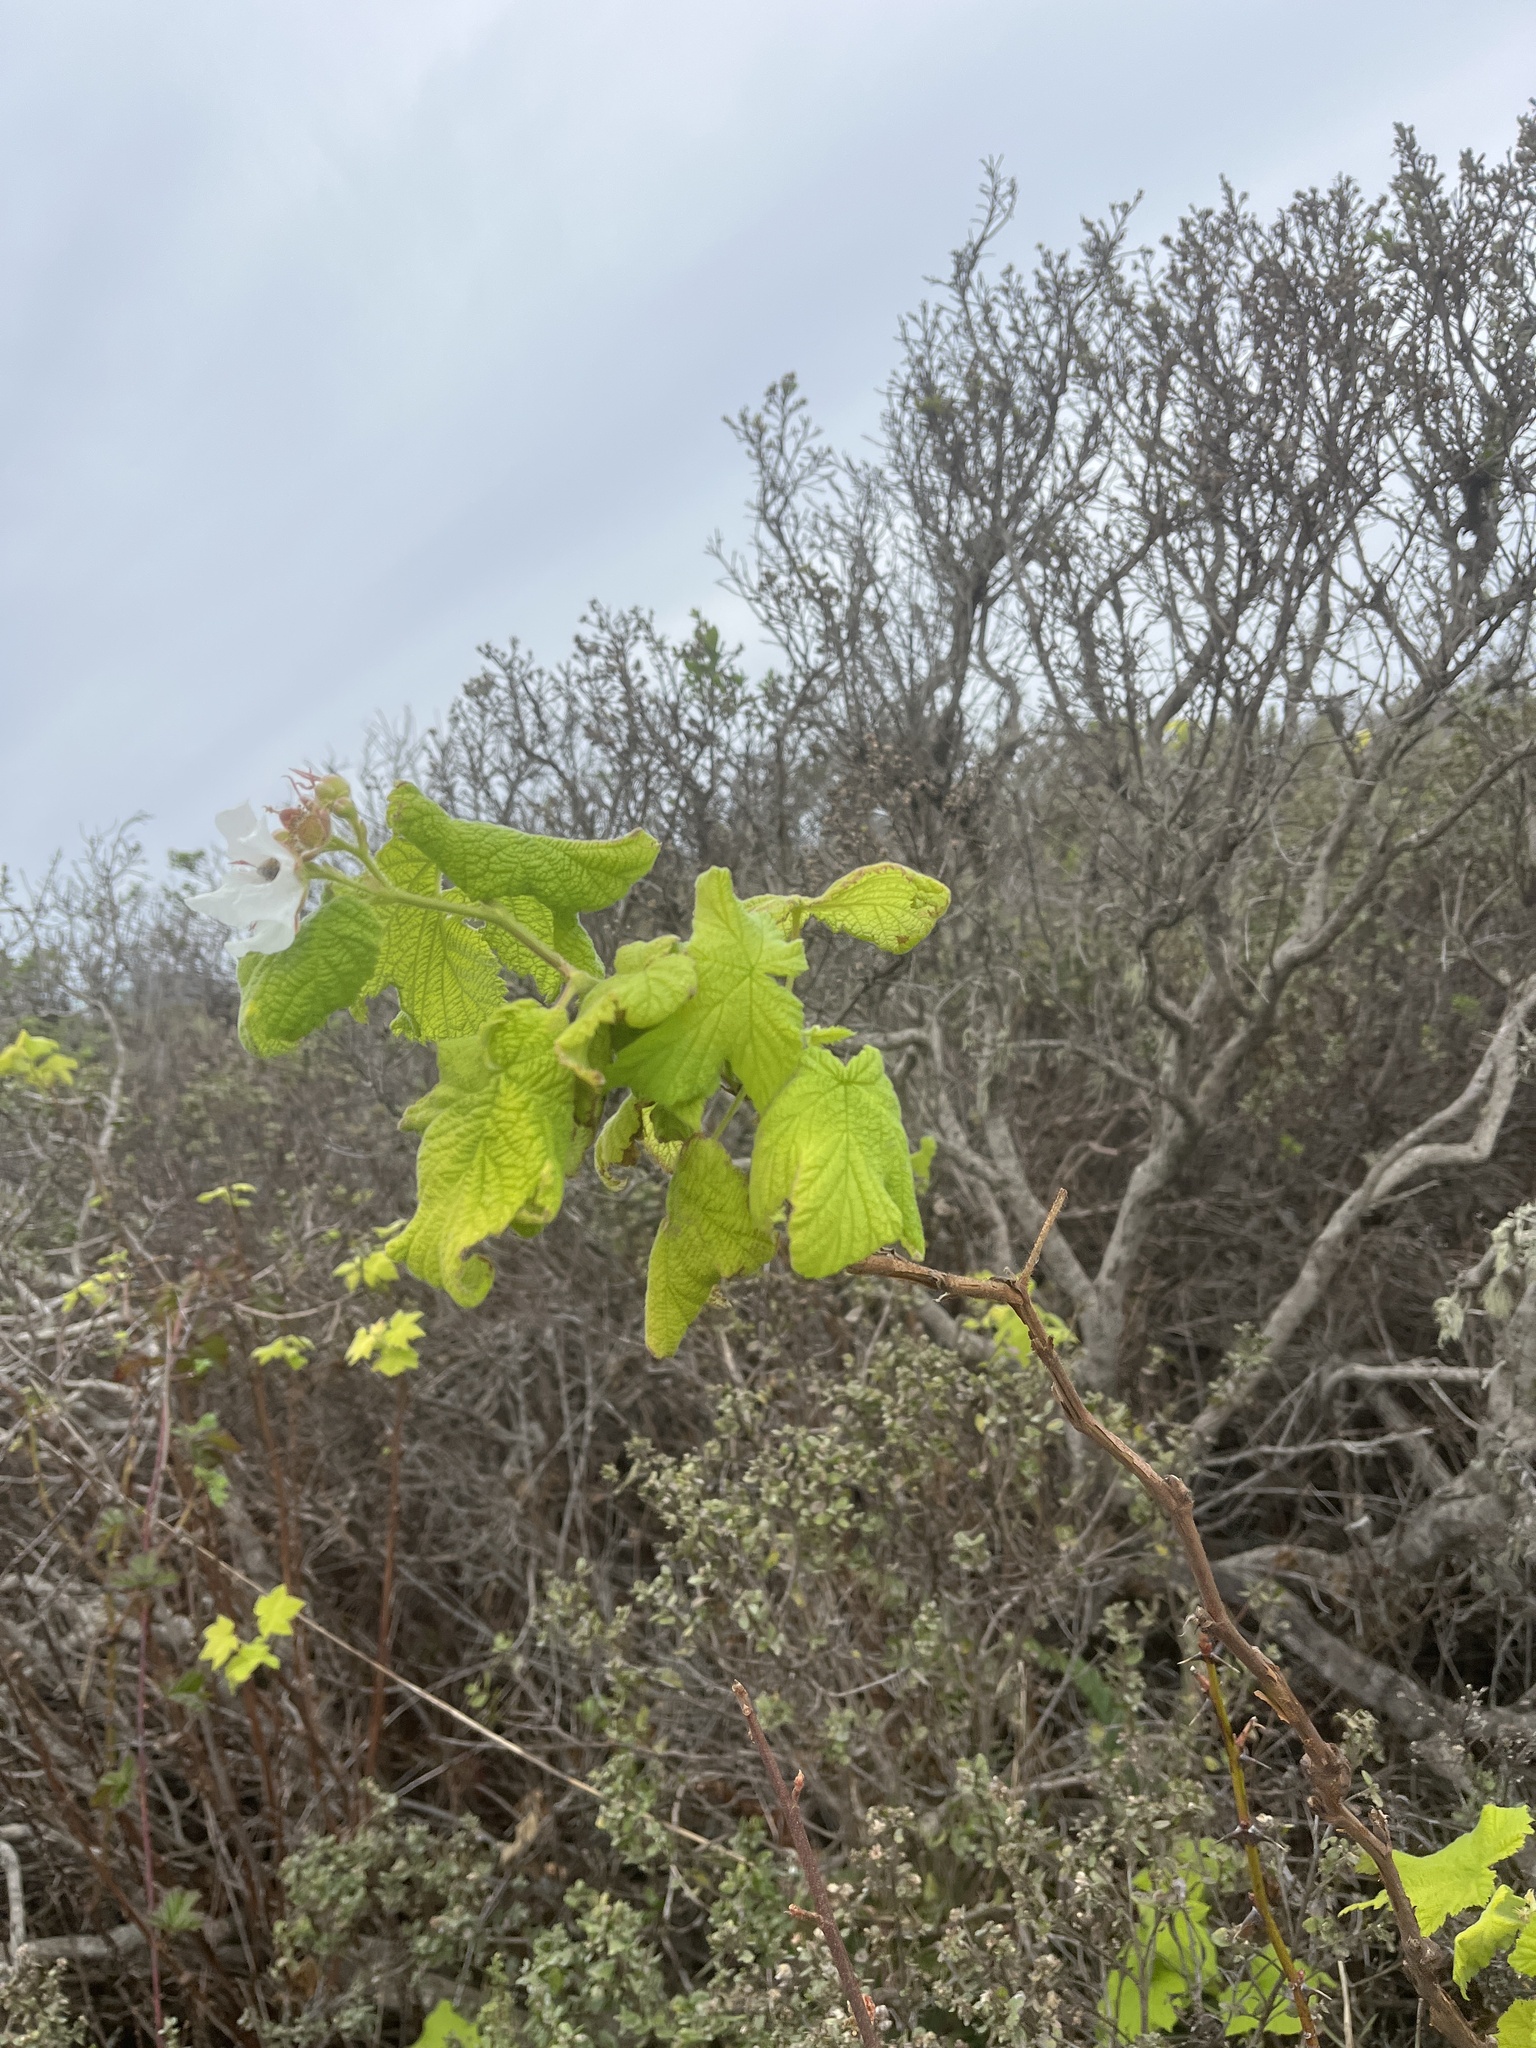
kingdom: Plantae
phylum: Tracheophyta
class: Magnoliopsida
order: Rosales
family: Rosaceae
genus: Rubus
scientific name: Rubus parviflorus
